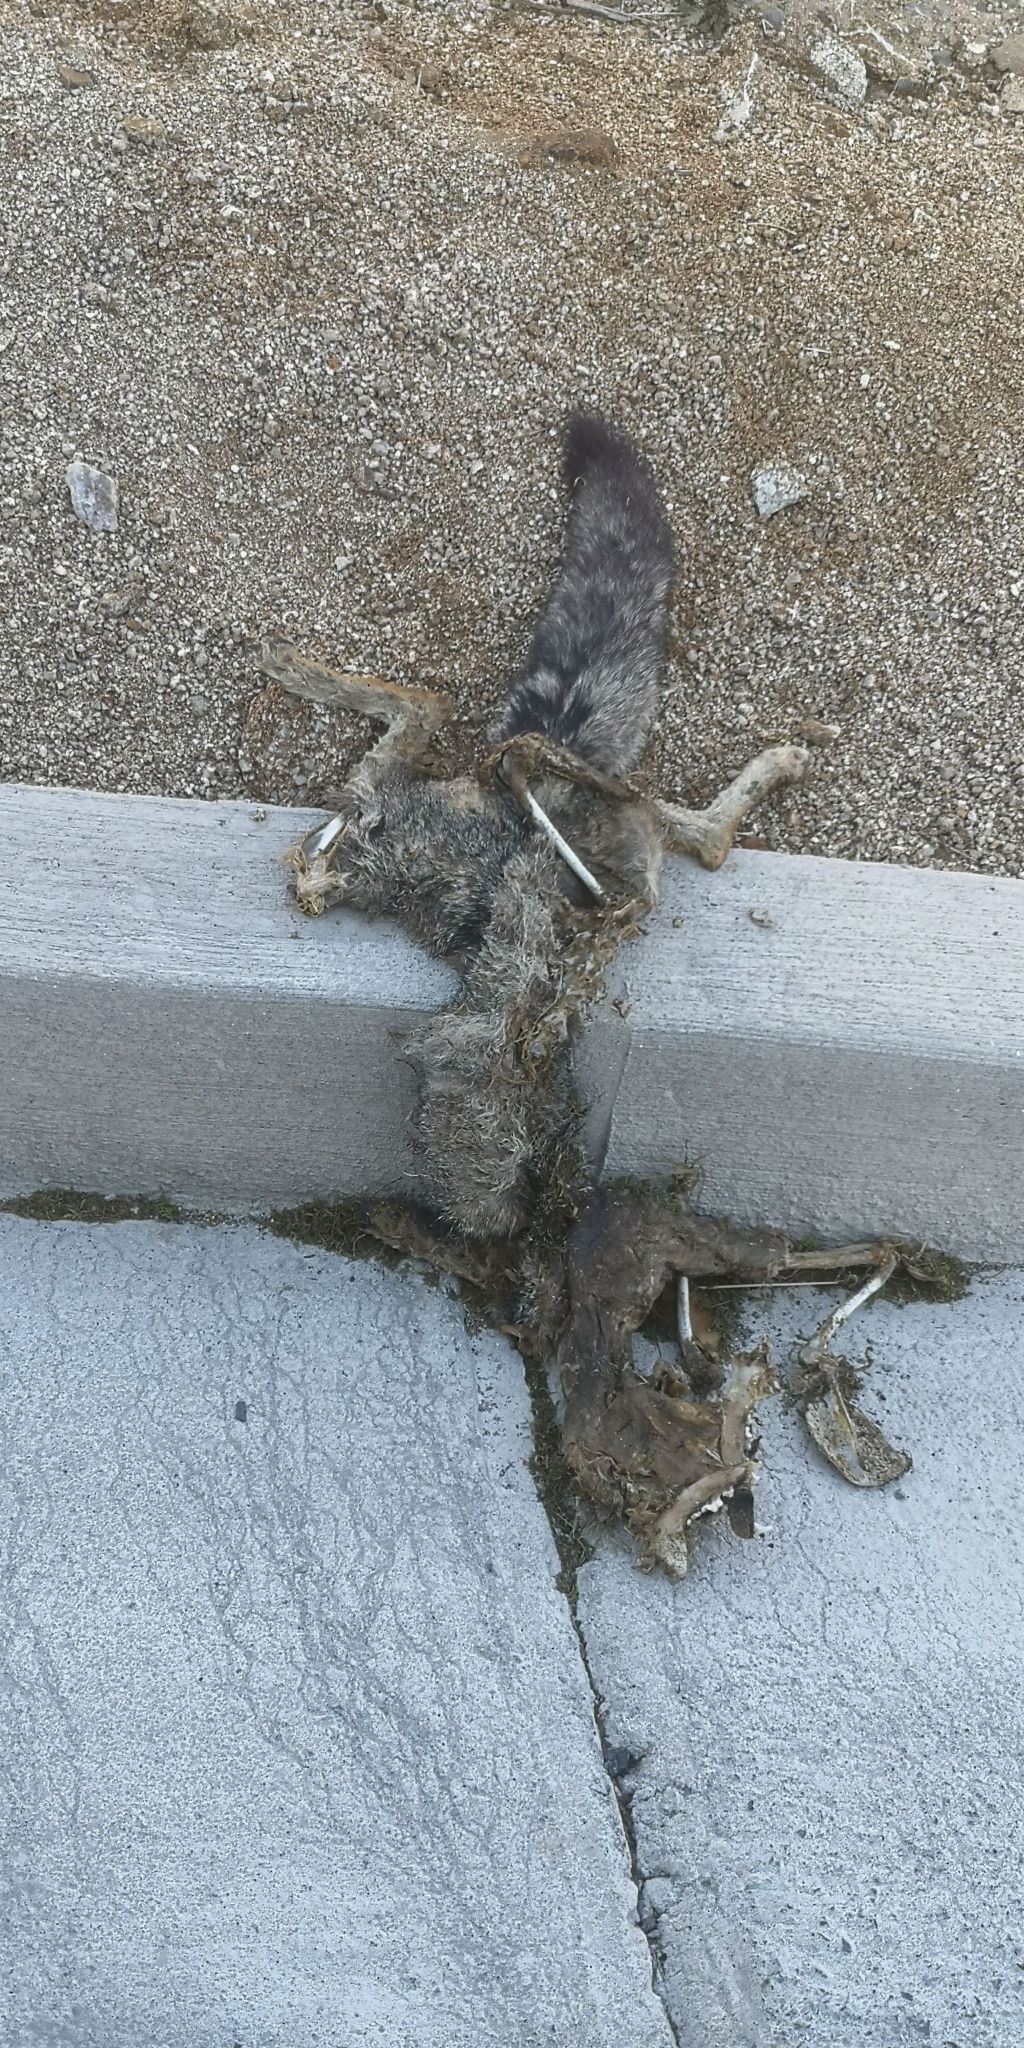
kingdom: Animalia
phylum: Chordata
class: Mammalia
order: Carnivora
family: Canidae
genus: Lycalopex
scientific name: Lycalopex gymnocercus
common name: Pampas fox
